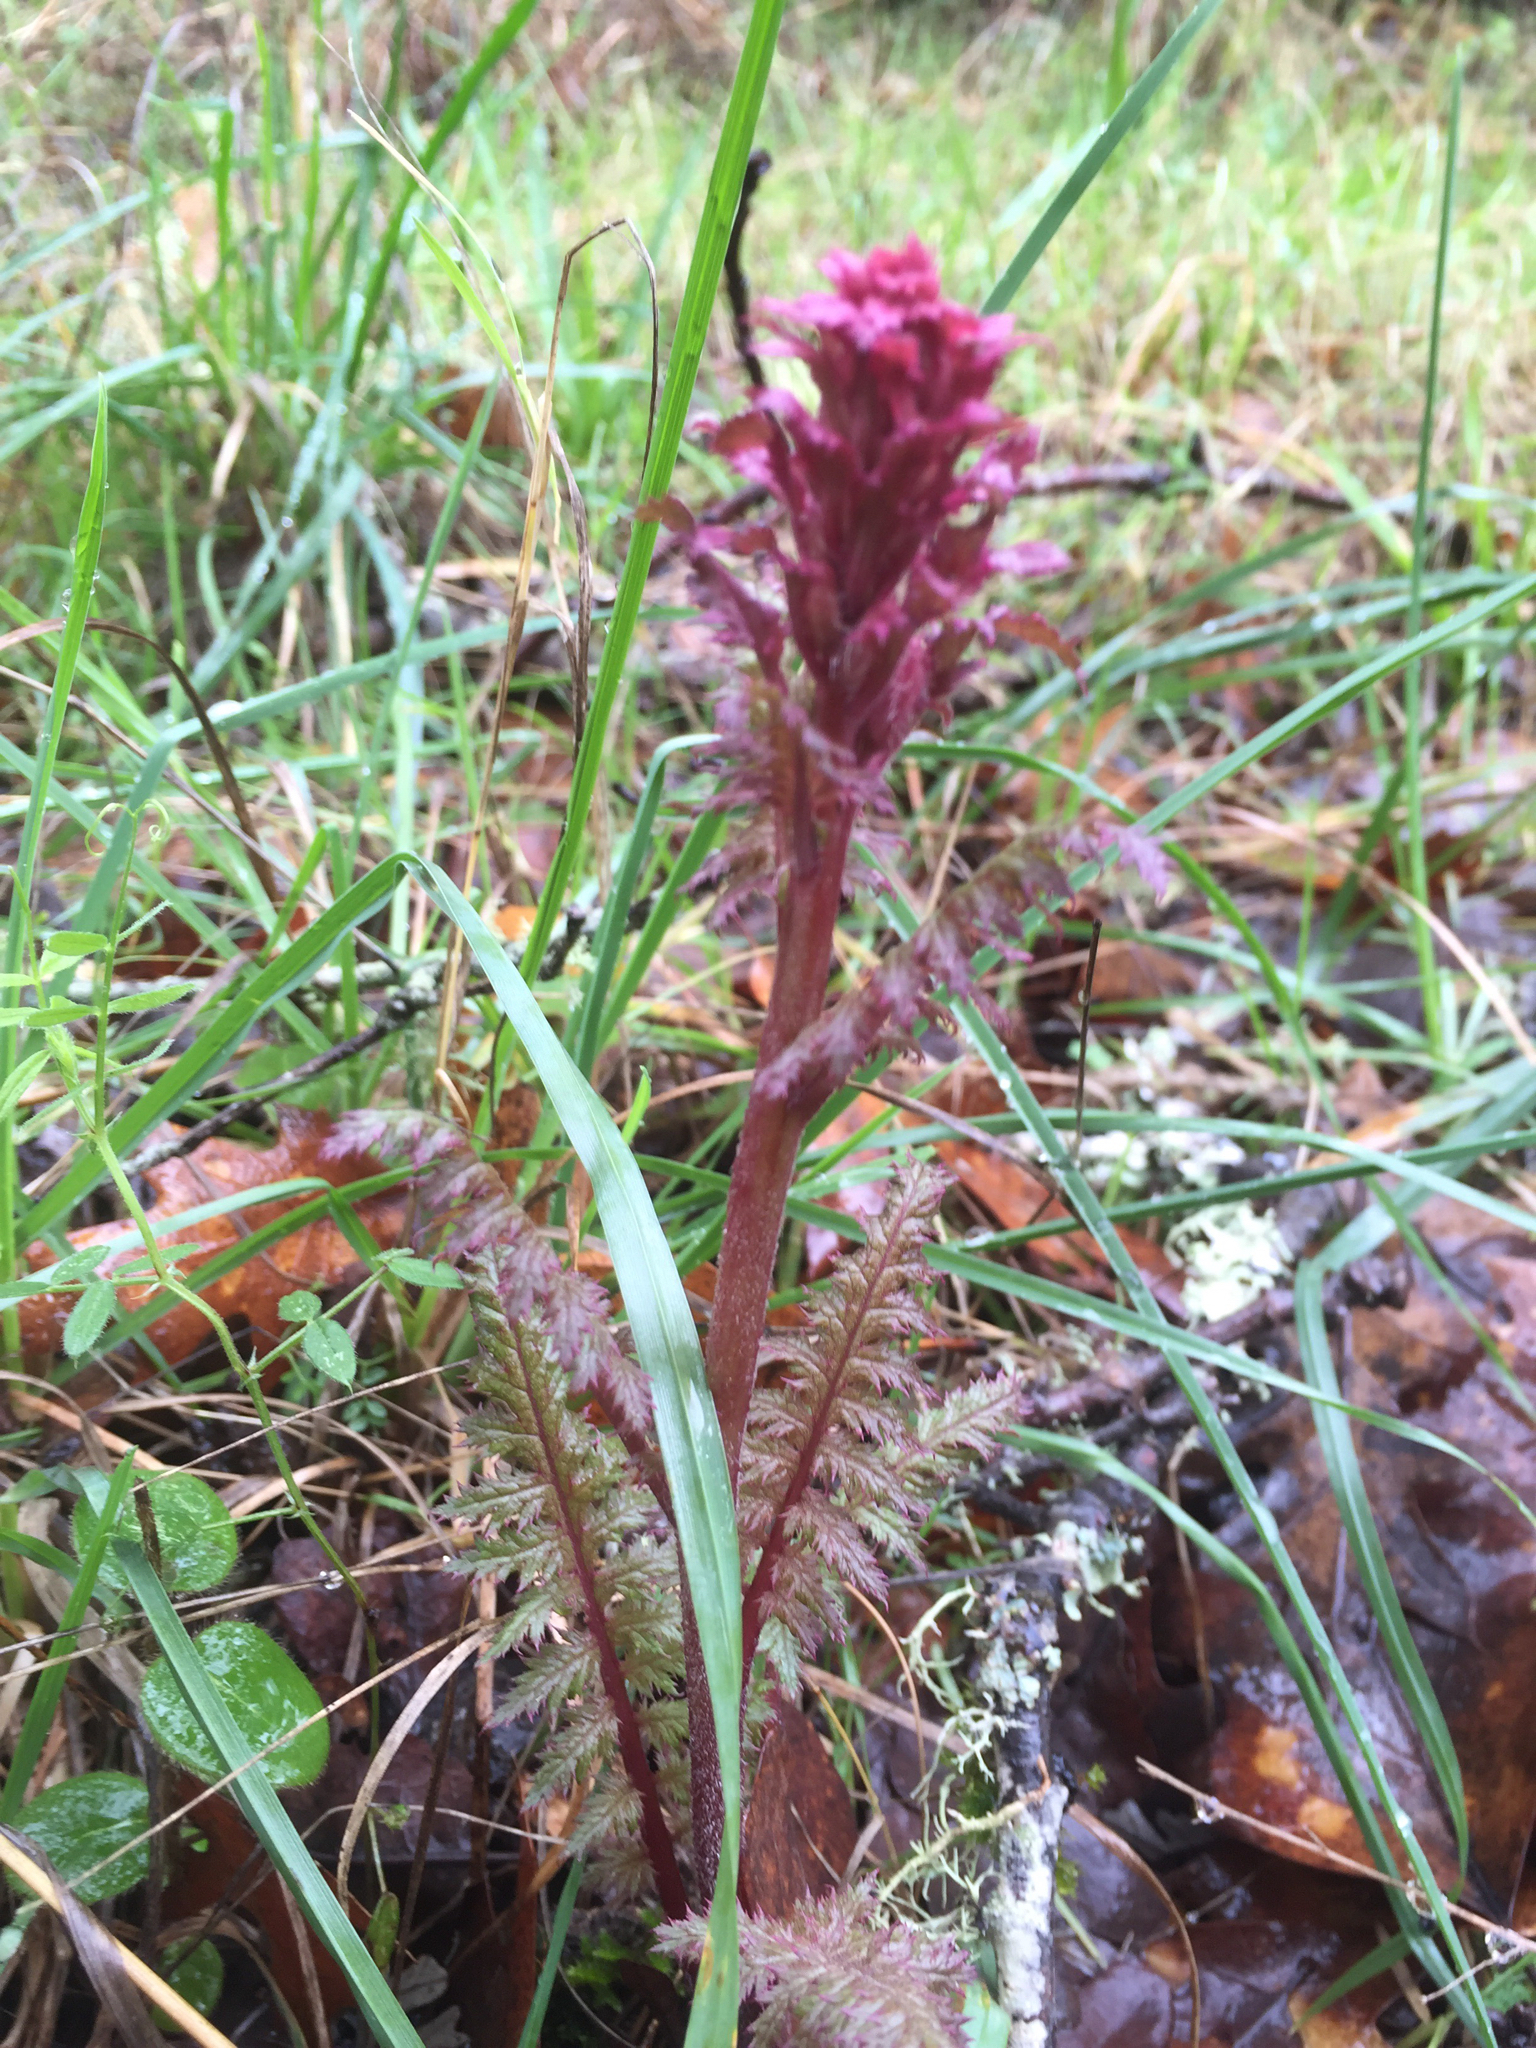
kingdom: Plantae
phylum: Tracheophyta
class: Magnoliopsida
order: Lamiales
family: Orobanchaceae
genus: Pedicularis
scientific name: Pedicularis densiflora
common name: Indian warrior
